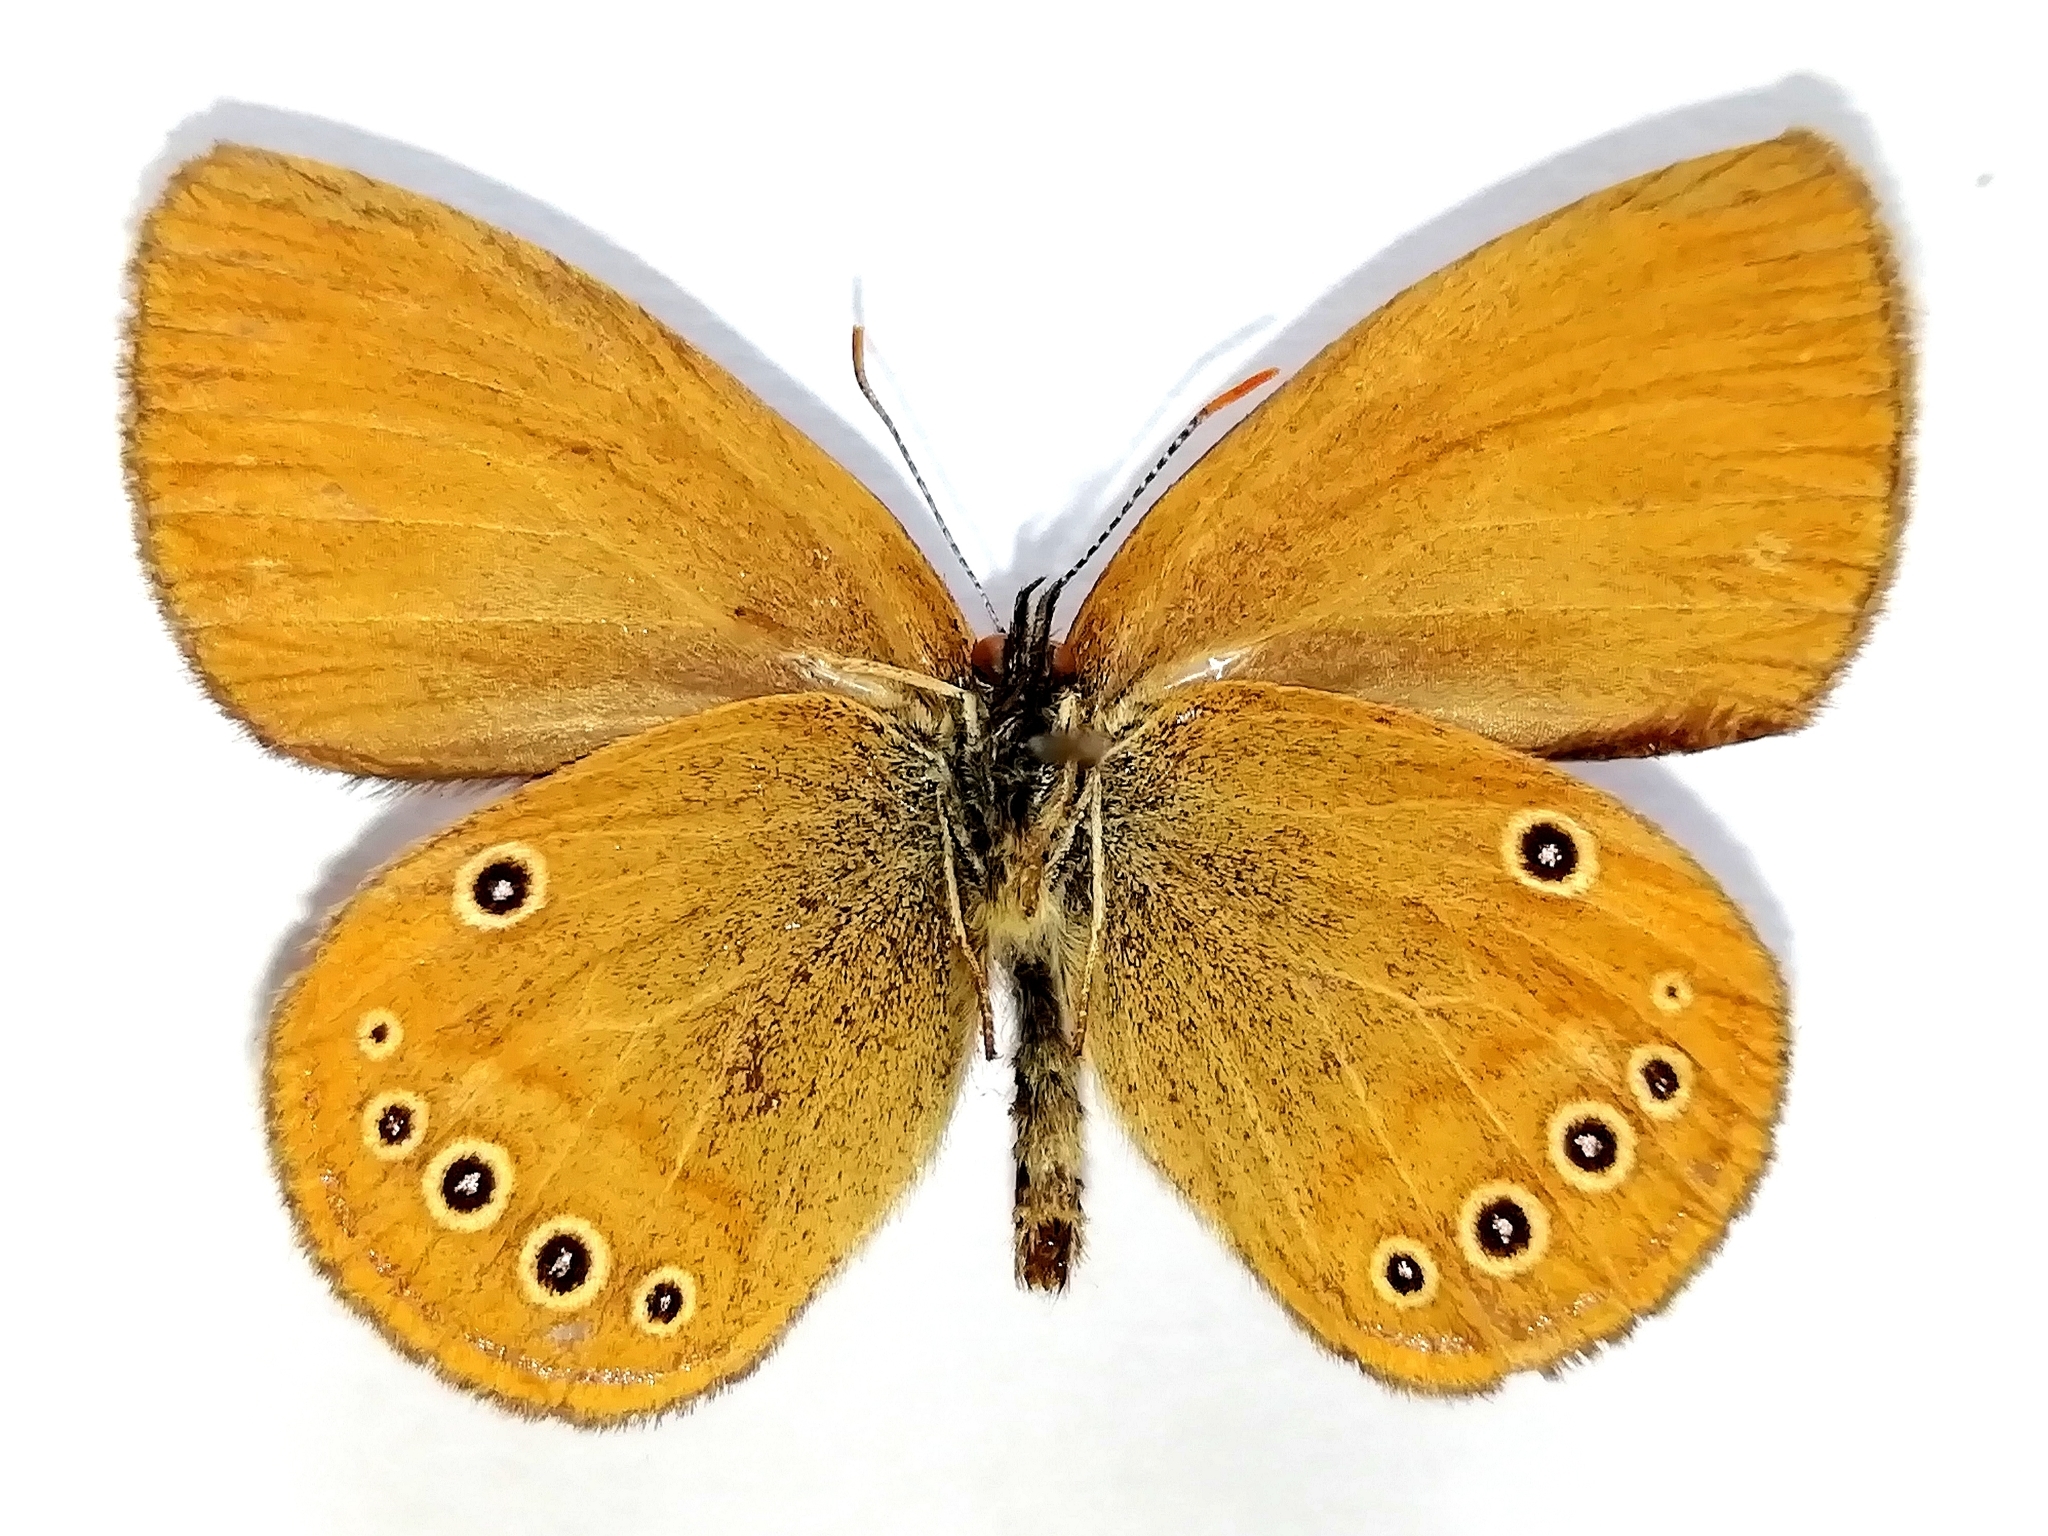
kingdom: Animalia
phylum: Arthropoda
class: Insecta
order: Lepidoptera
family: Nymphalidae
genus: Coenonympha
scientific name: Coenonympha oedippus
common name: False ringlet
